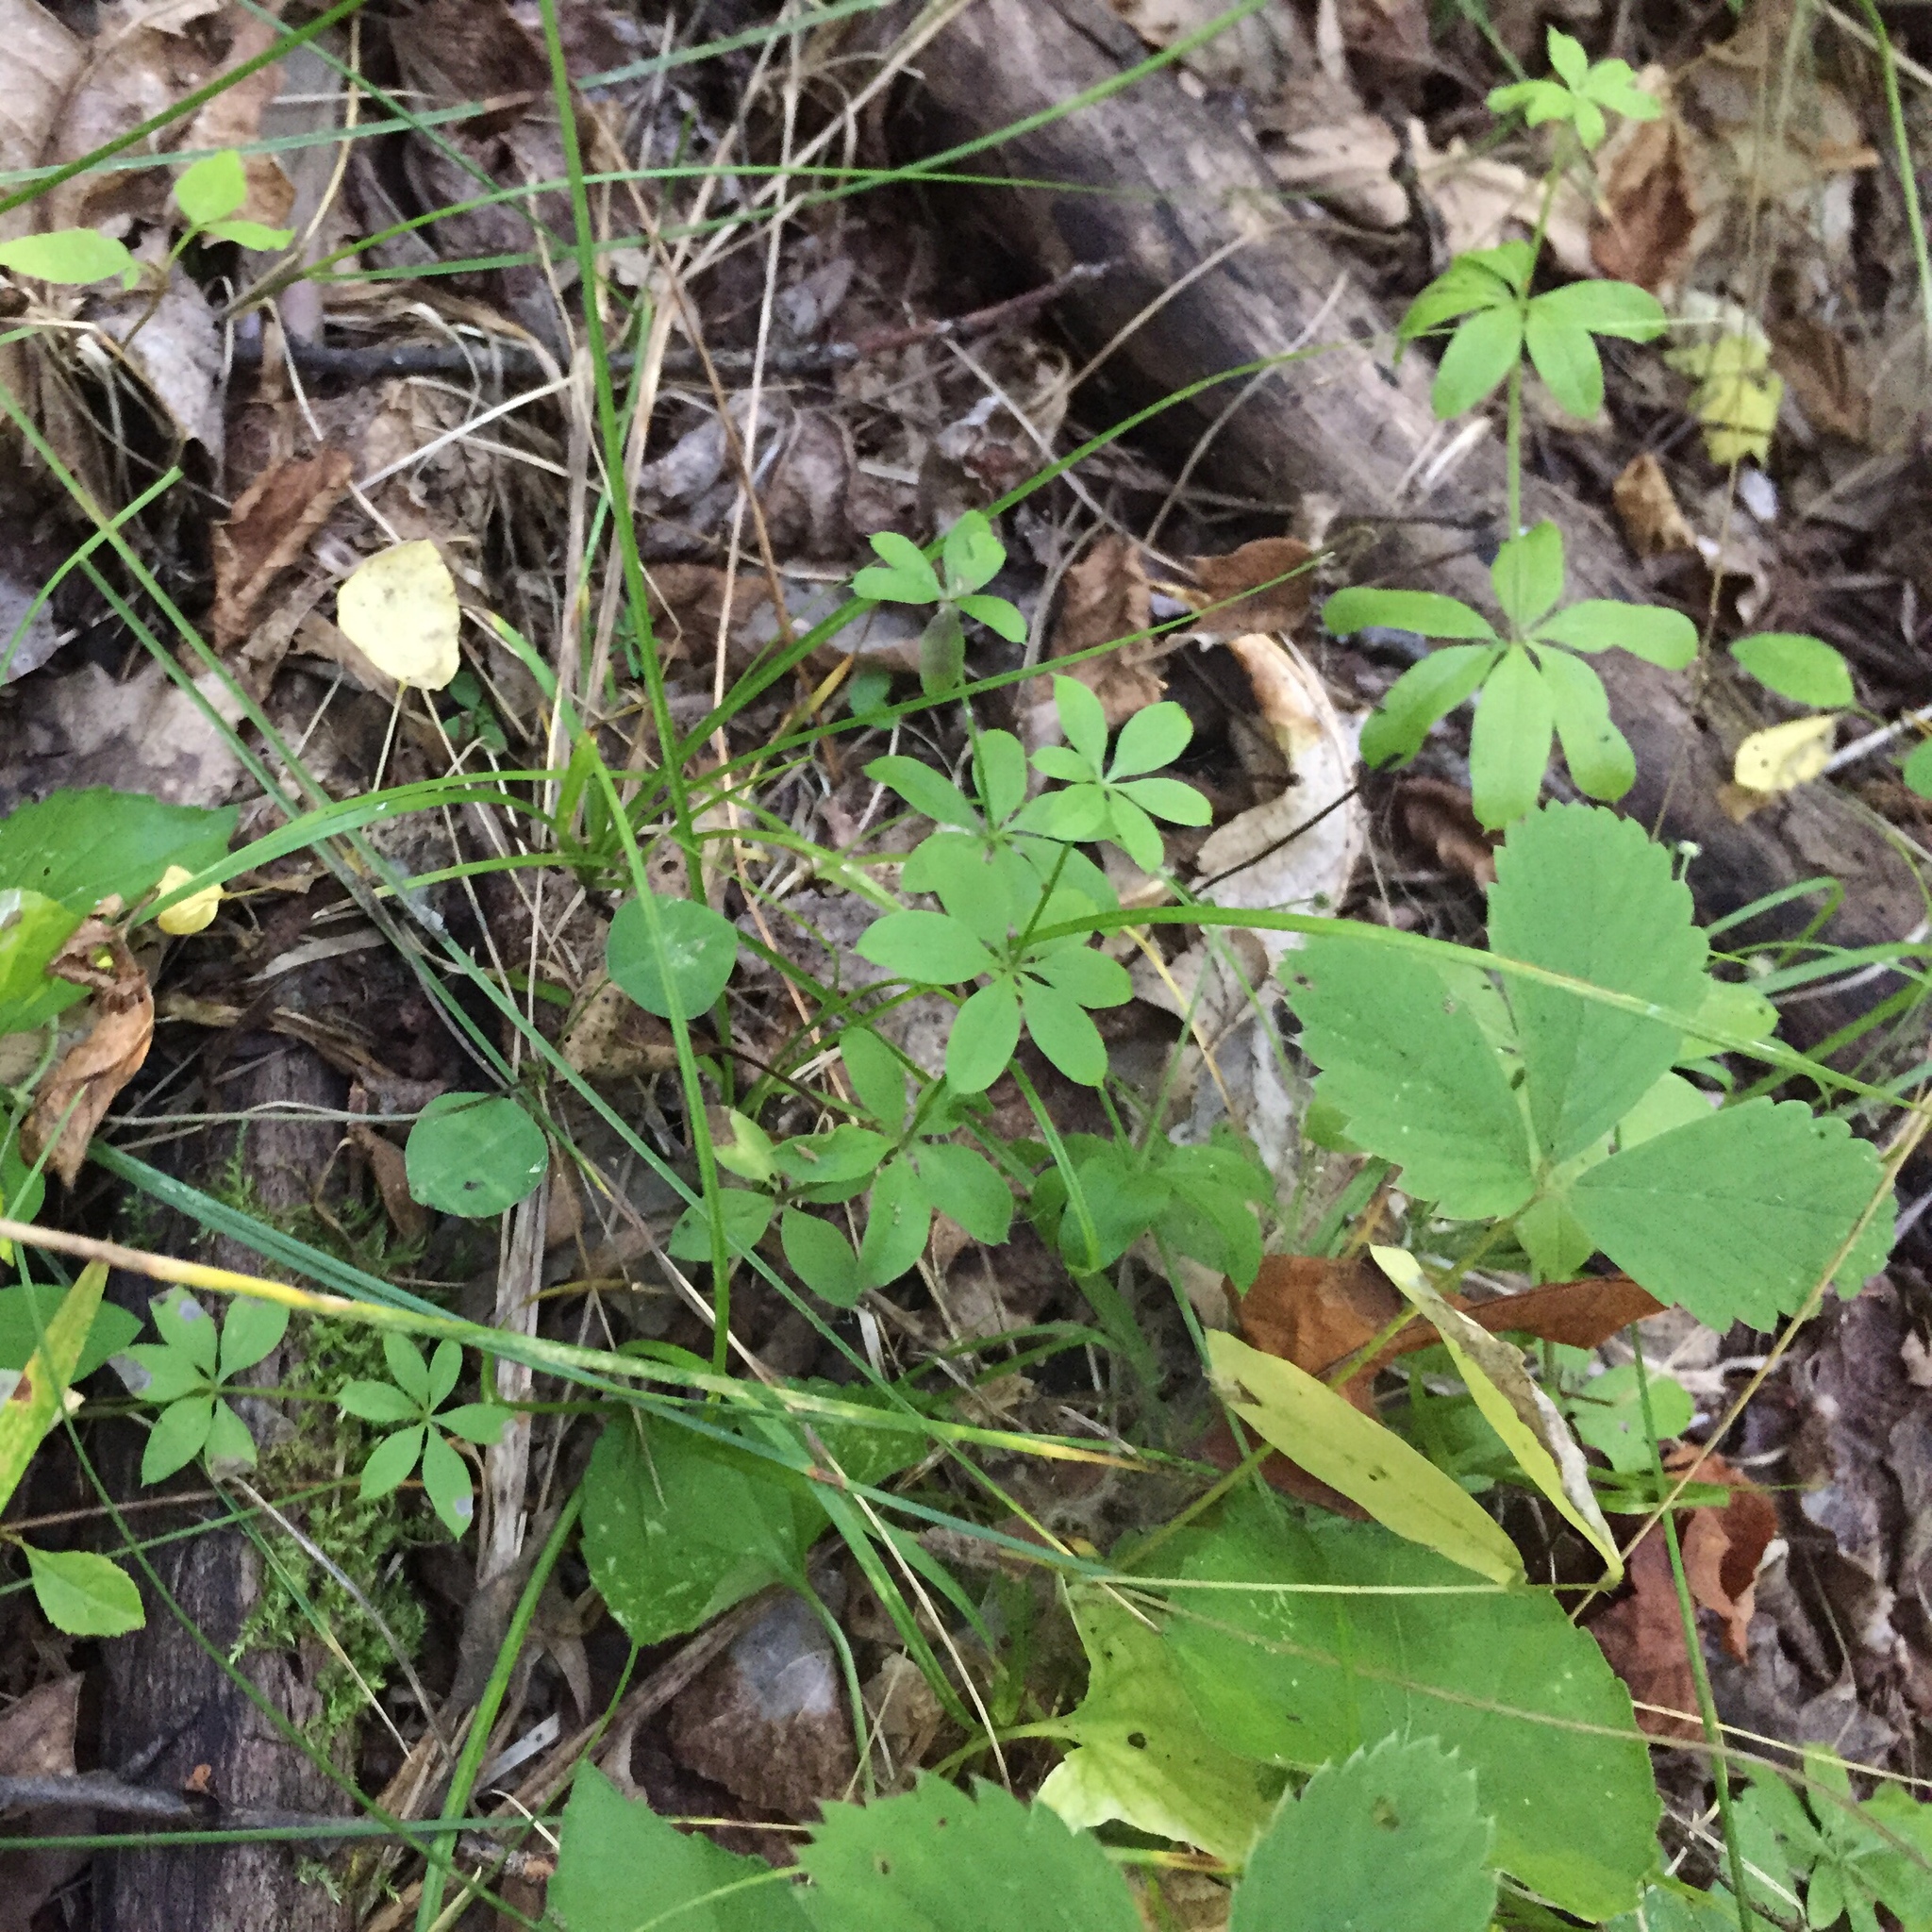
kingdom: Plantae
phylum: Tracheophyta
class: Magnoliopsida
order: Gentianales
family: Rubiaceae
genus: Galium
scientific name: Galium triflorum
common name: Fragrant bedstraw
